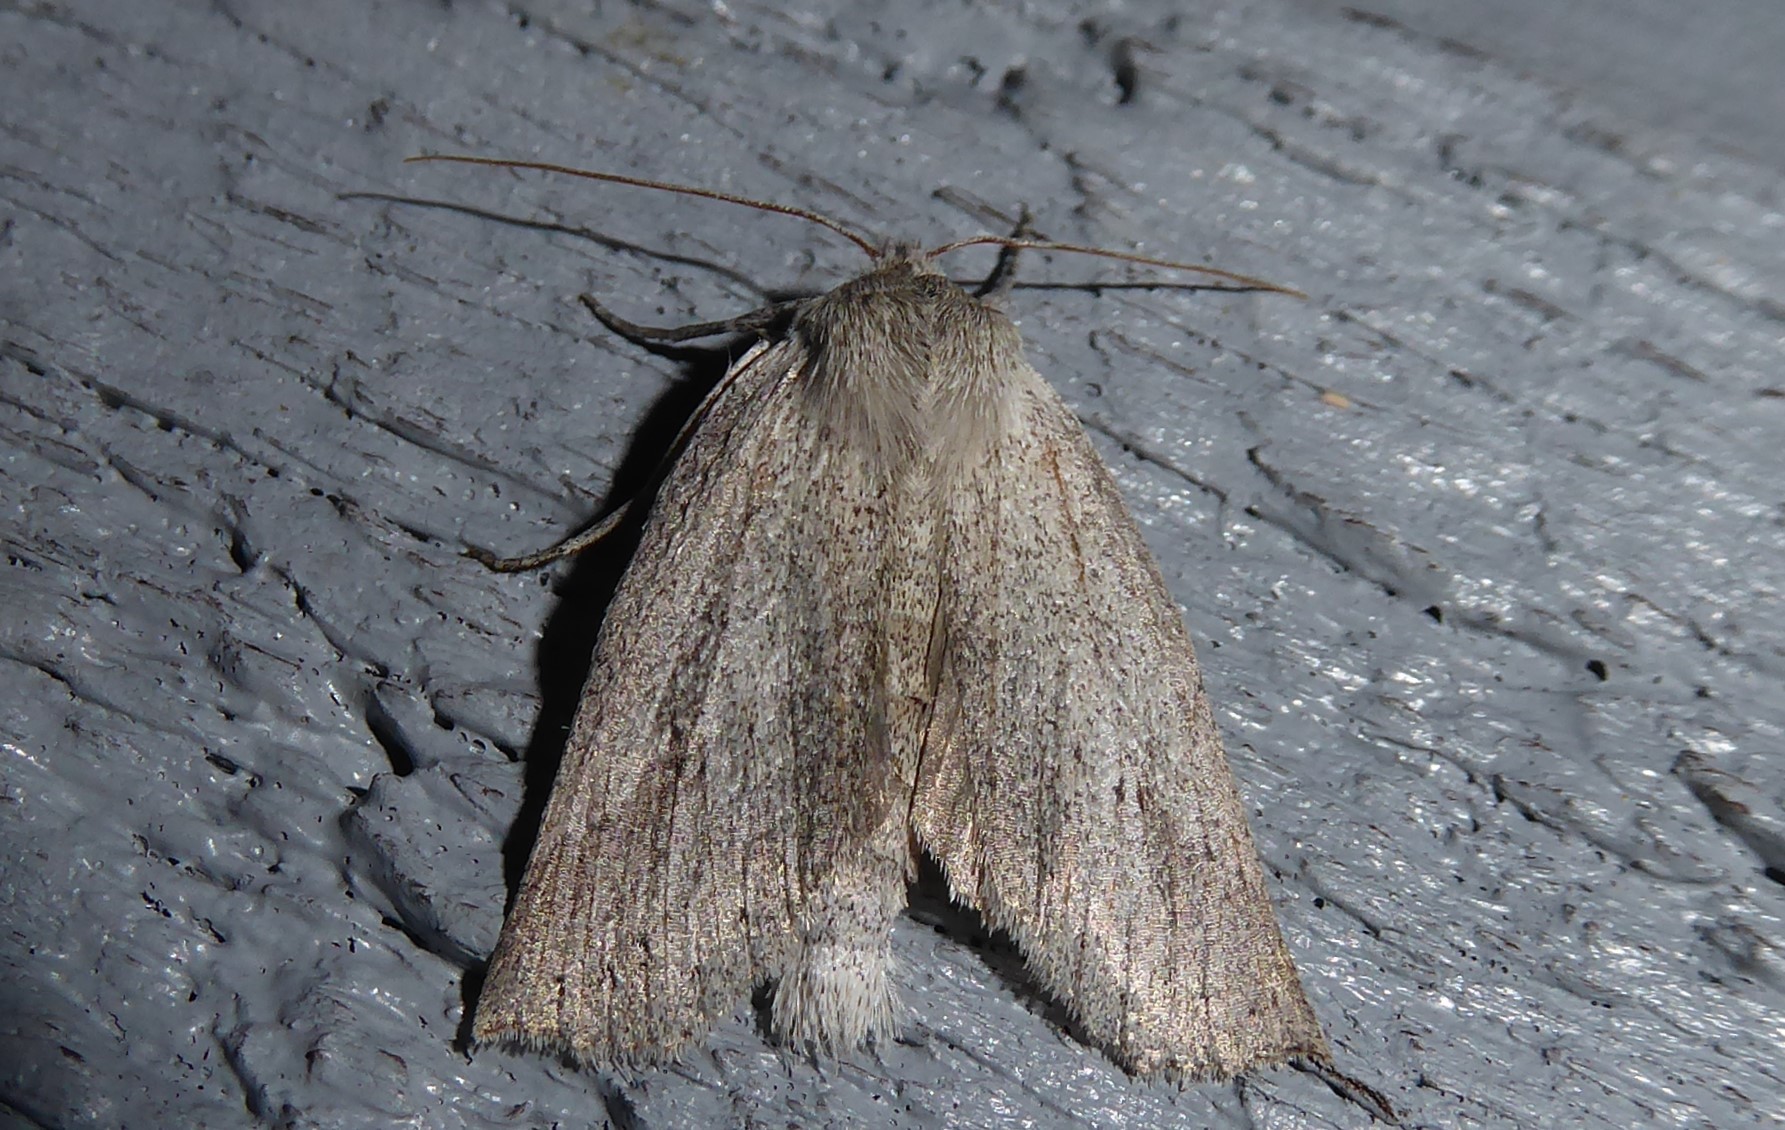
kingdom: Animalia
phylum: Arthropoda
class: Insecta
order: Lepidoptera
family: Geometridae
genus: Declana
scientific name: Declana leptomera
